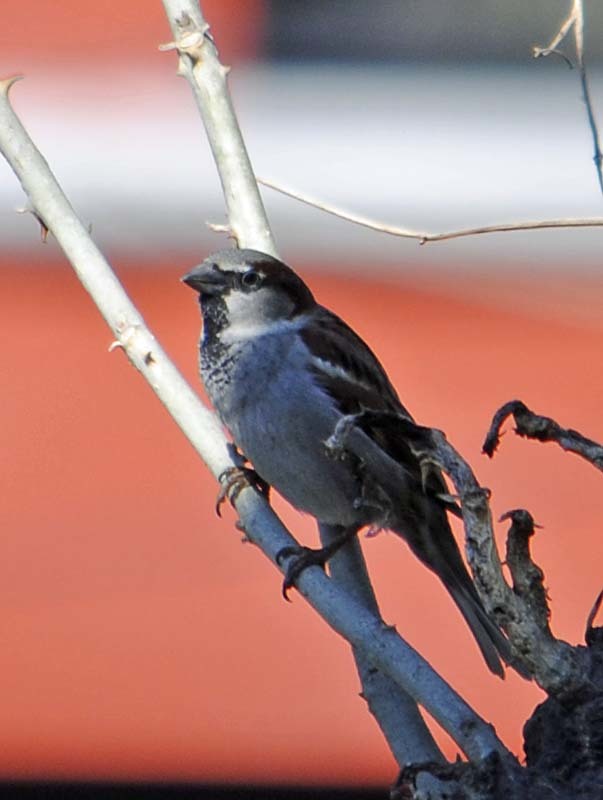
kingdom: Animalia
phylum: Chordata
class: Aves
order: Passeriformes
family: Passeridae
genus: Passer
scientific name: Passer domesticus
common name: House sparrow
